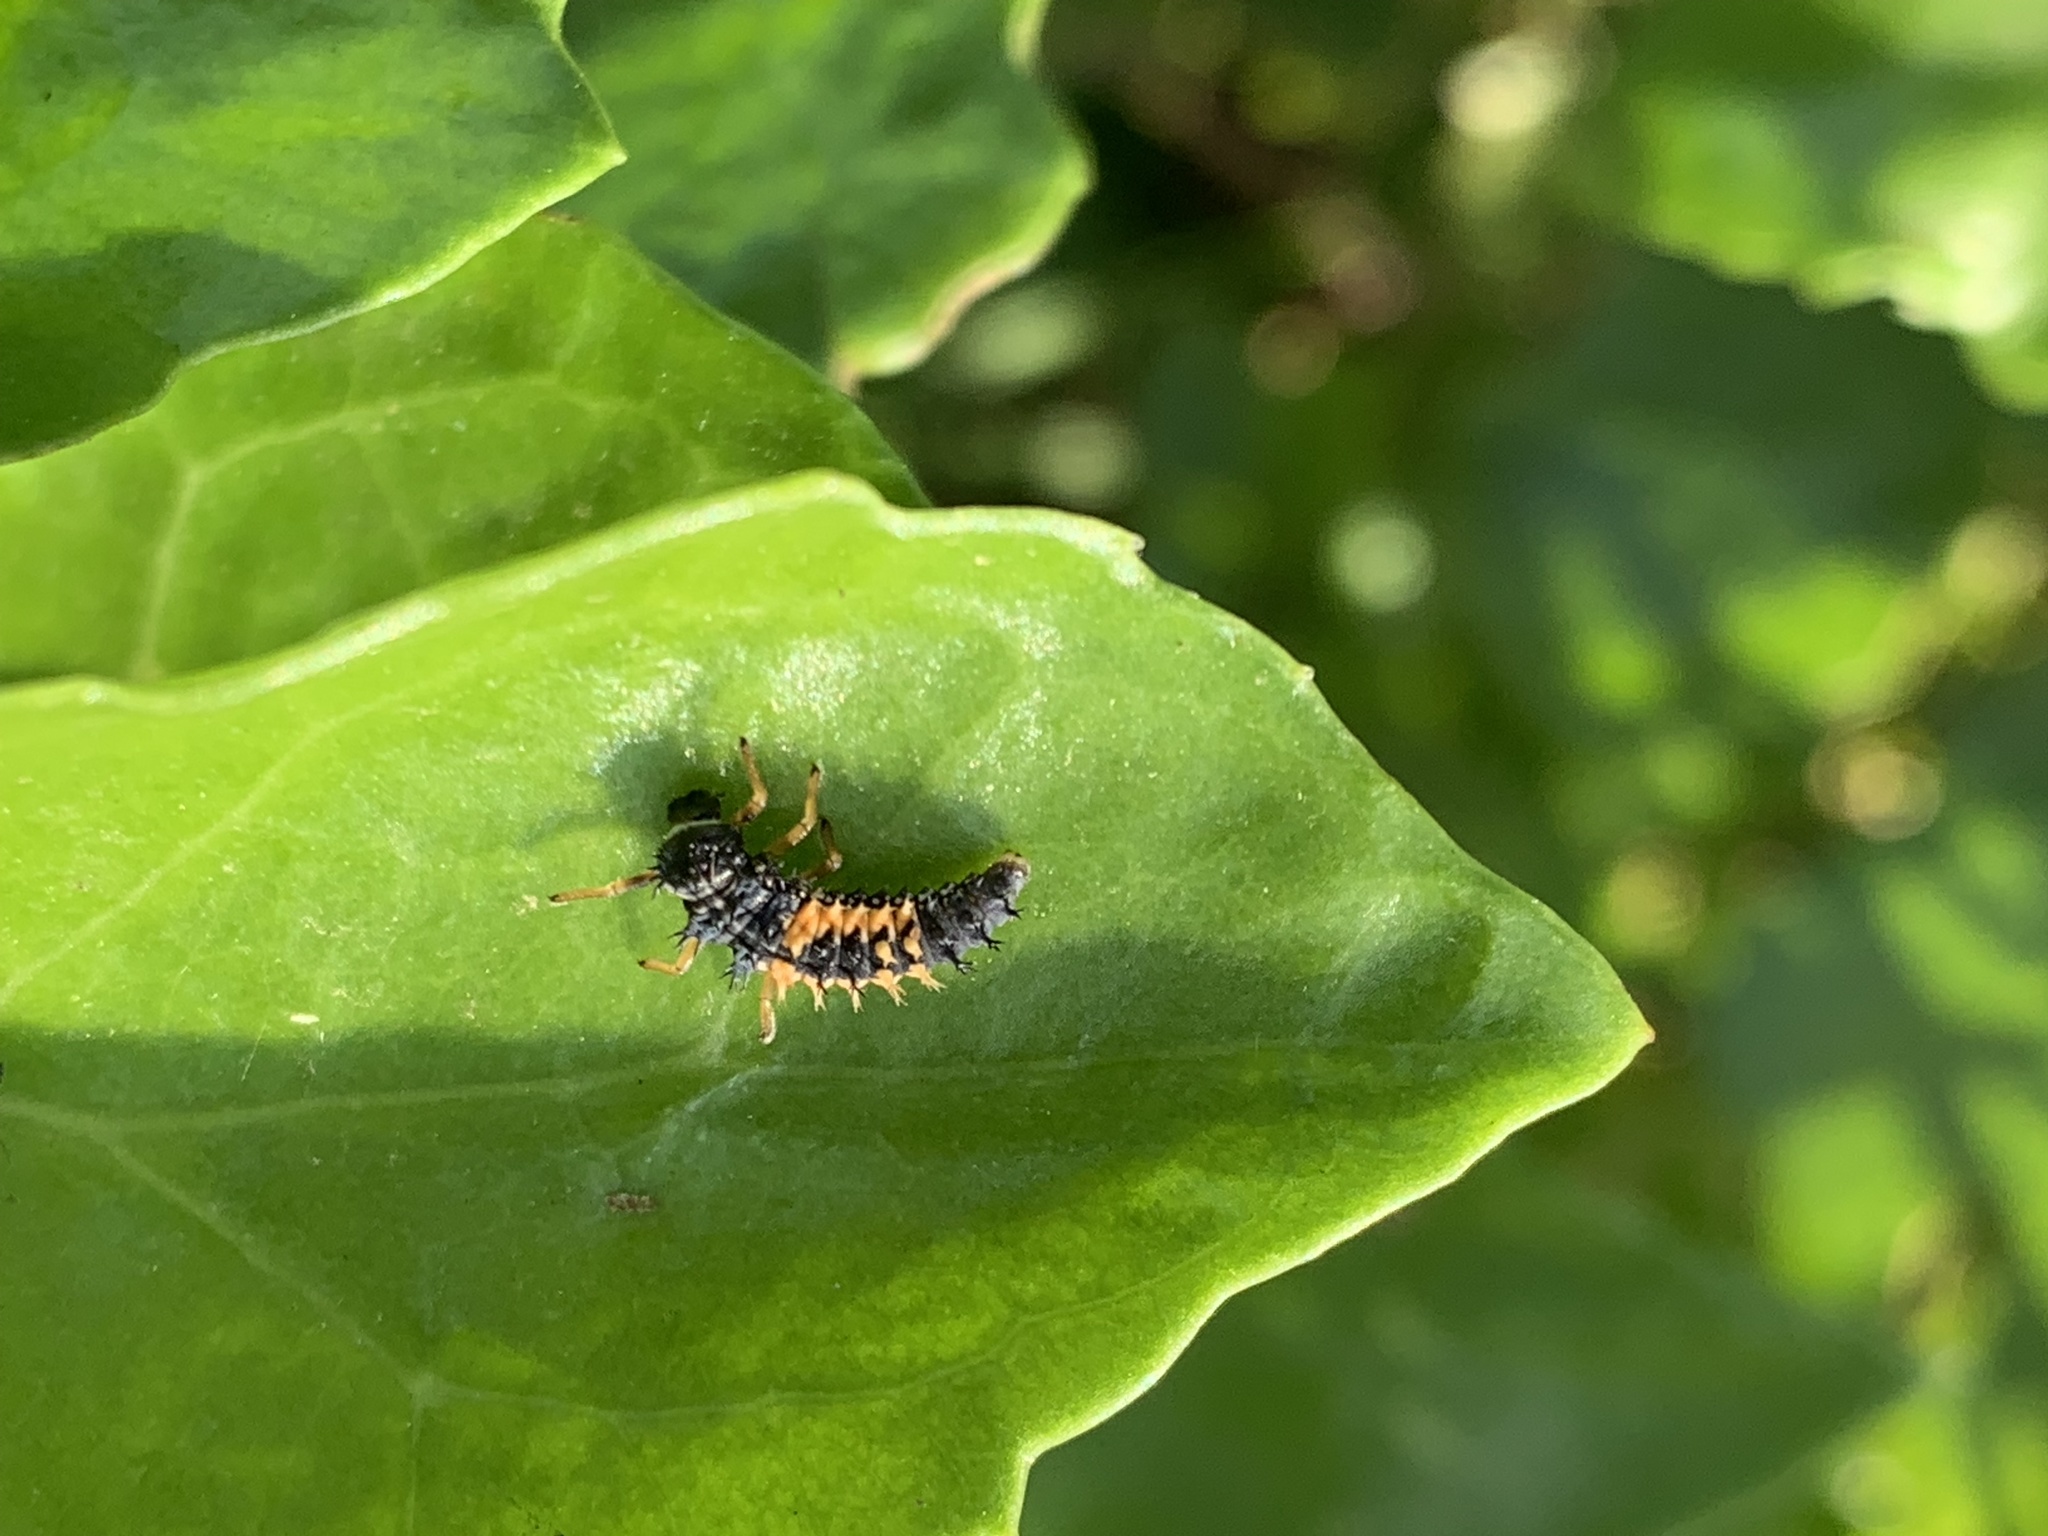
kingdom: Animalia
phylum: Arthropoda
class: Insecta
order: Coleoptera
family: Coccinellidae
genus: Harmonia
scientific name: Harmonia axyridis
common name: Harlequin ladybird
